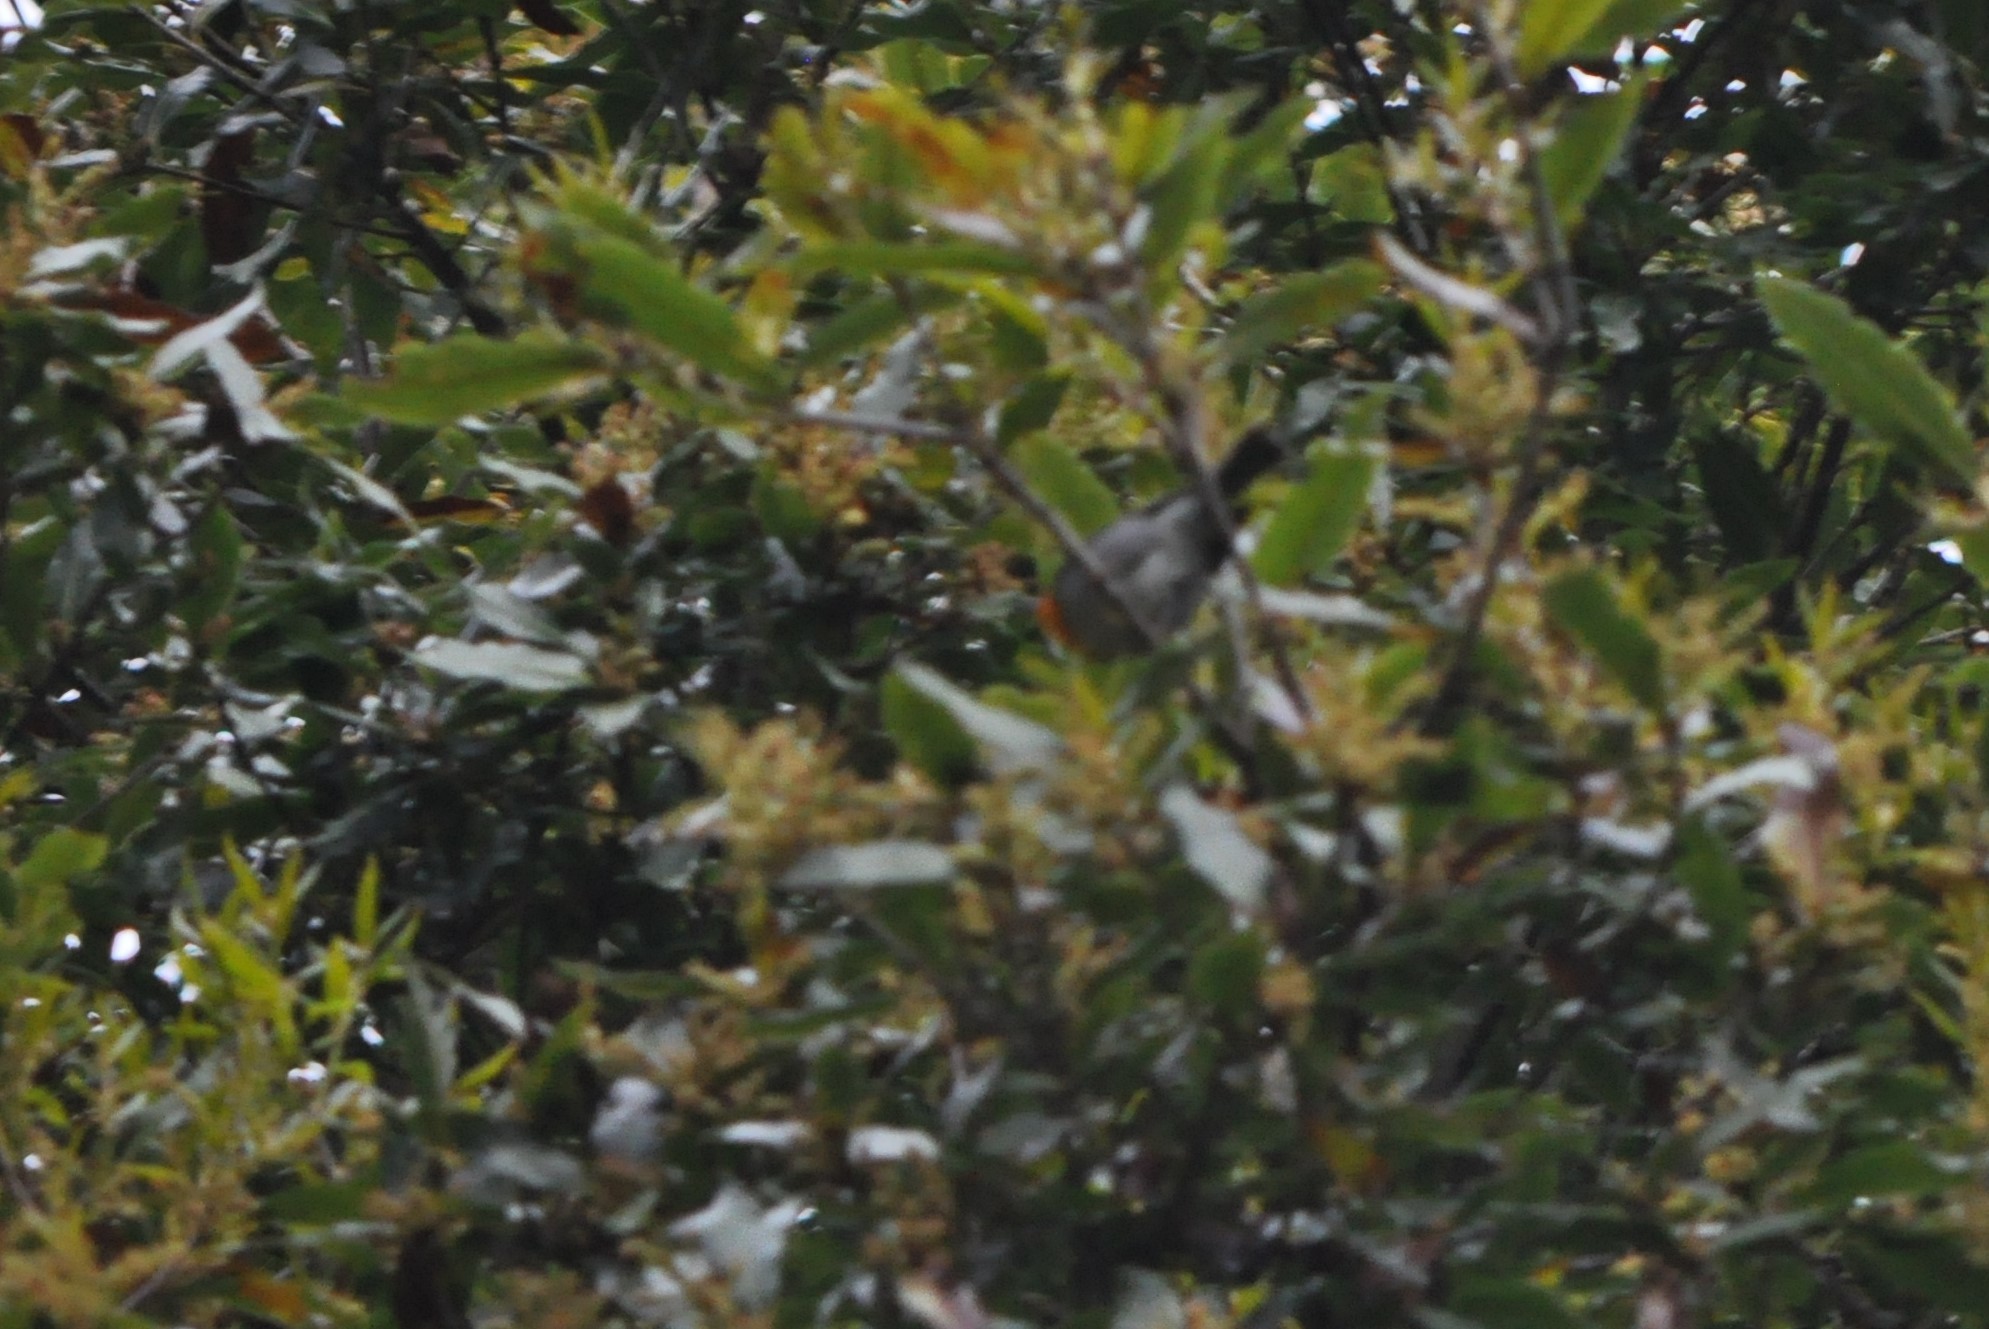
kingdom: Animalia
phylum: Chordata
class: Aves
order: Passeriformes
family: Parulidae
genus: Oreothlypis
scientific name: Oreothlypis gutturalis
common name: Flame-throated warbler
